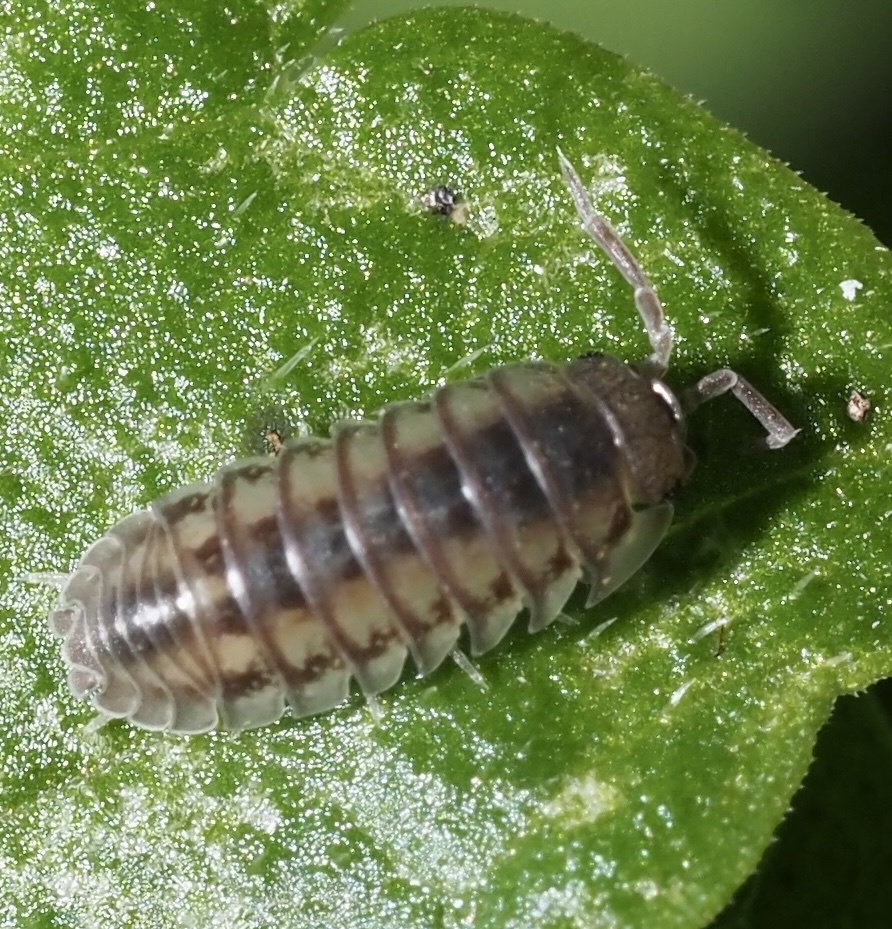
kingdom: Animalia
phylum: Arthropoda
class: Malacostraca
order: Isopoda
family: Armadillidiidae
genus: Armadillidium
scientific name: Armadillidium nasatum
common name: Isopod
